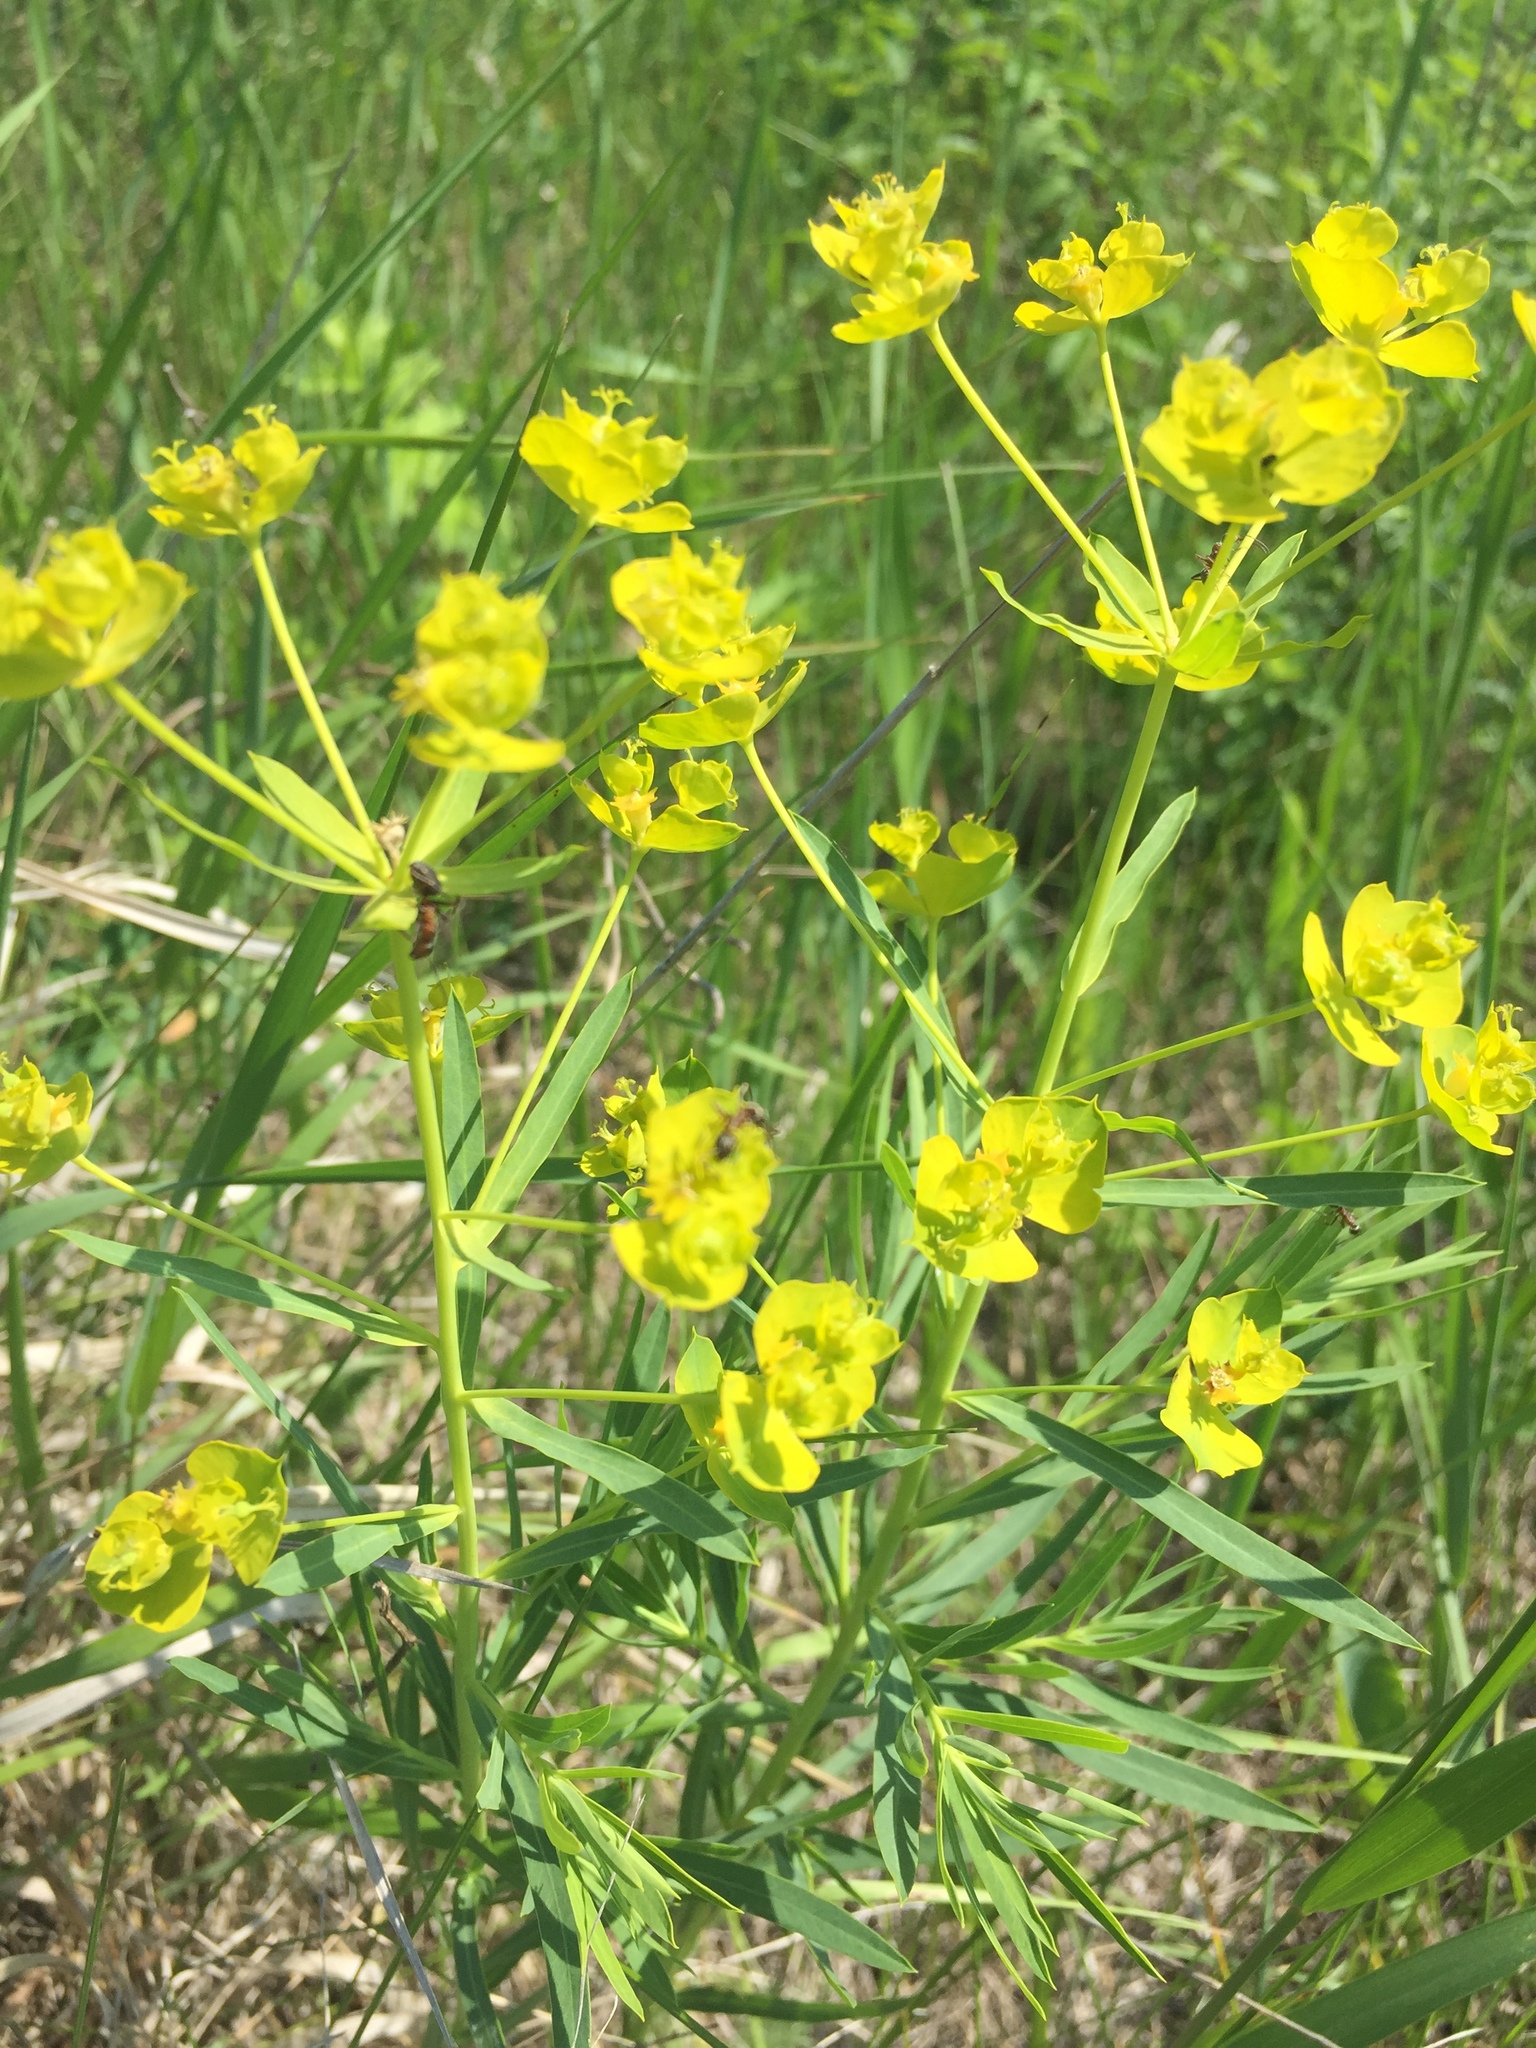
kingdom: Plantae
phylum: Tracheophyta
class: Magnoliopsida
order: Malpighiales
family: Euphorbiaceae
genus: Euphorbia
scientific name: Euphorbia virgata
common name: Leafy spurge
